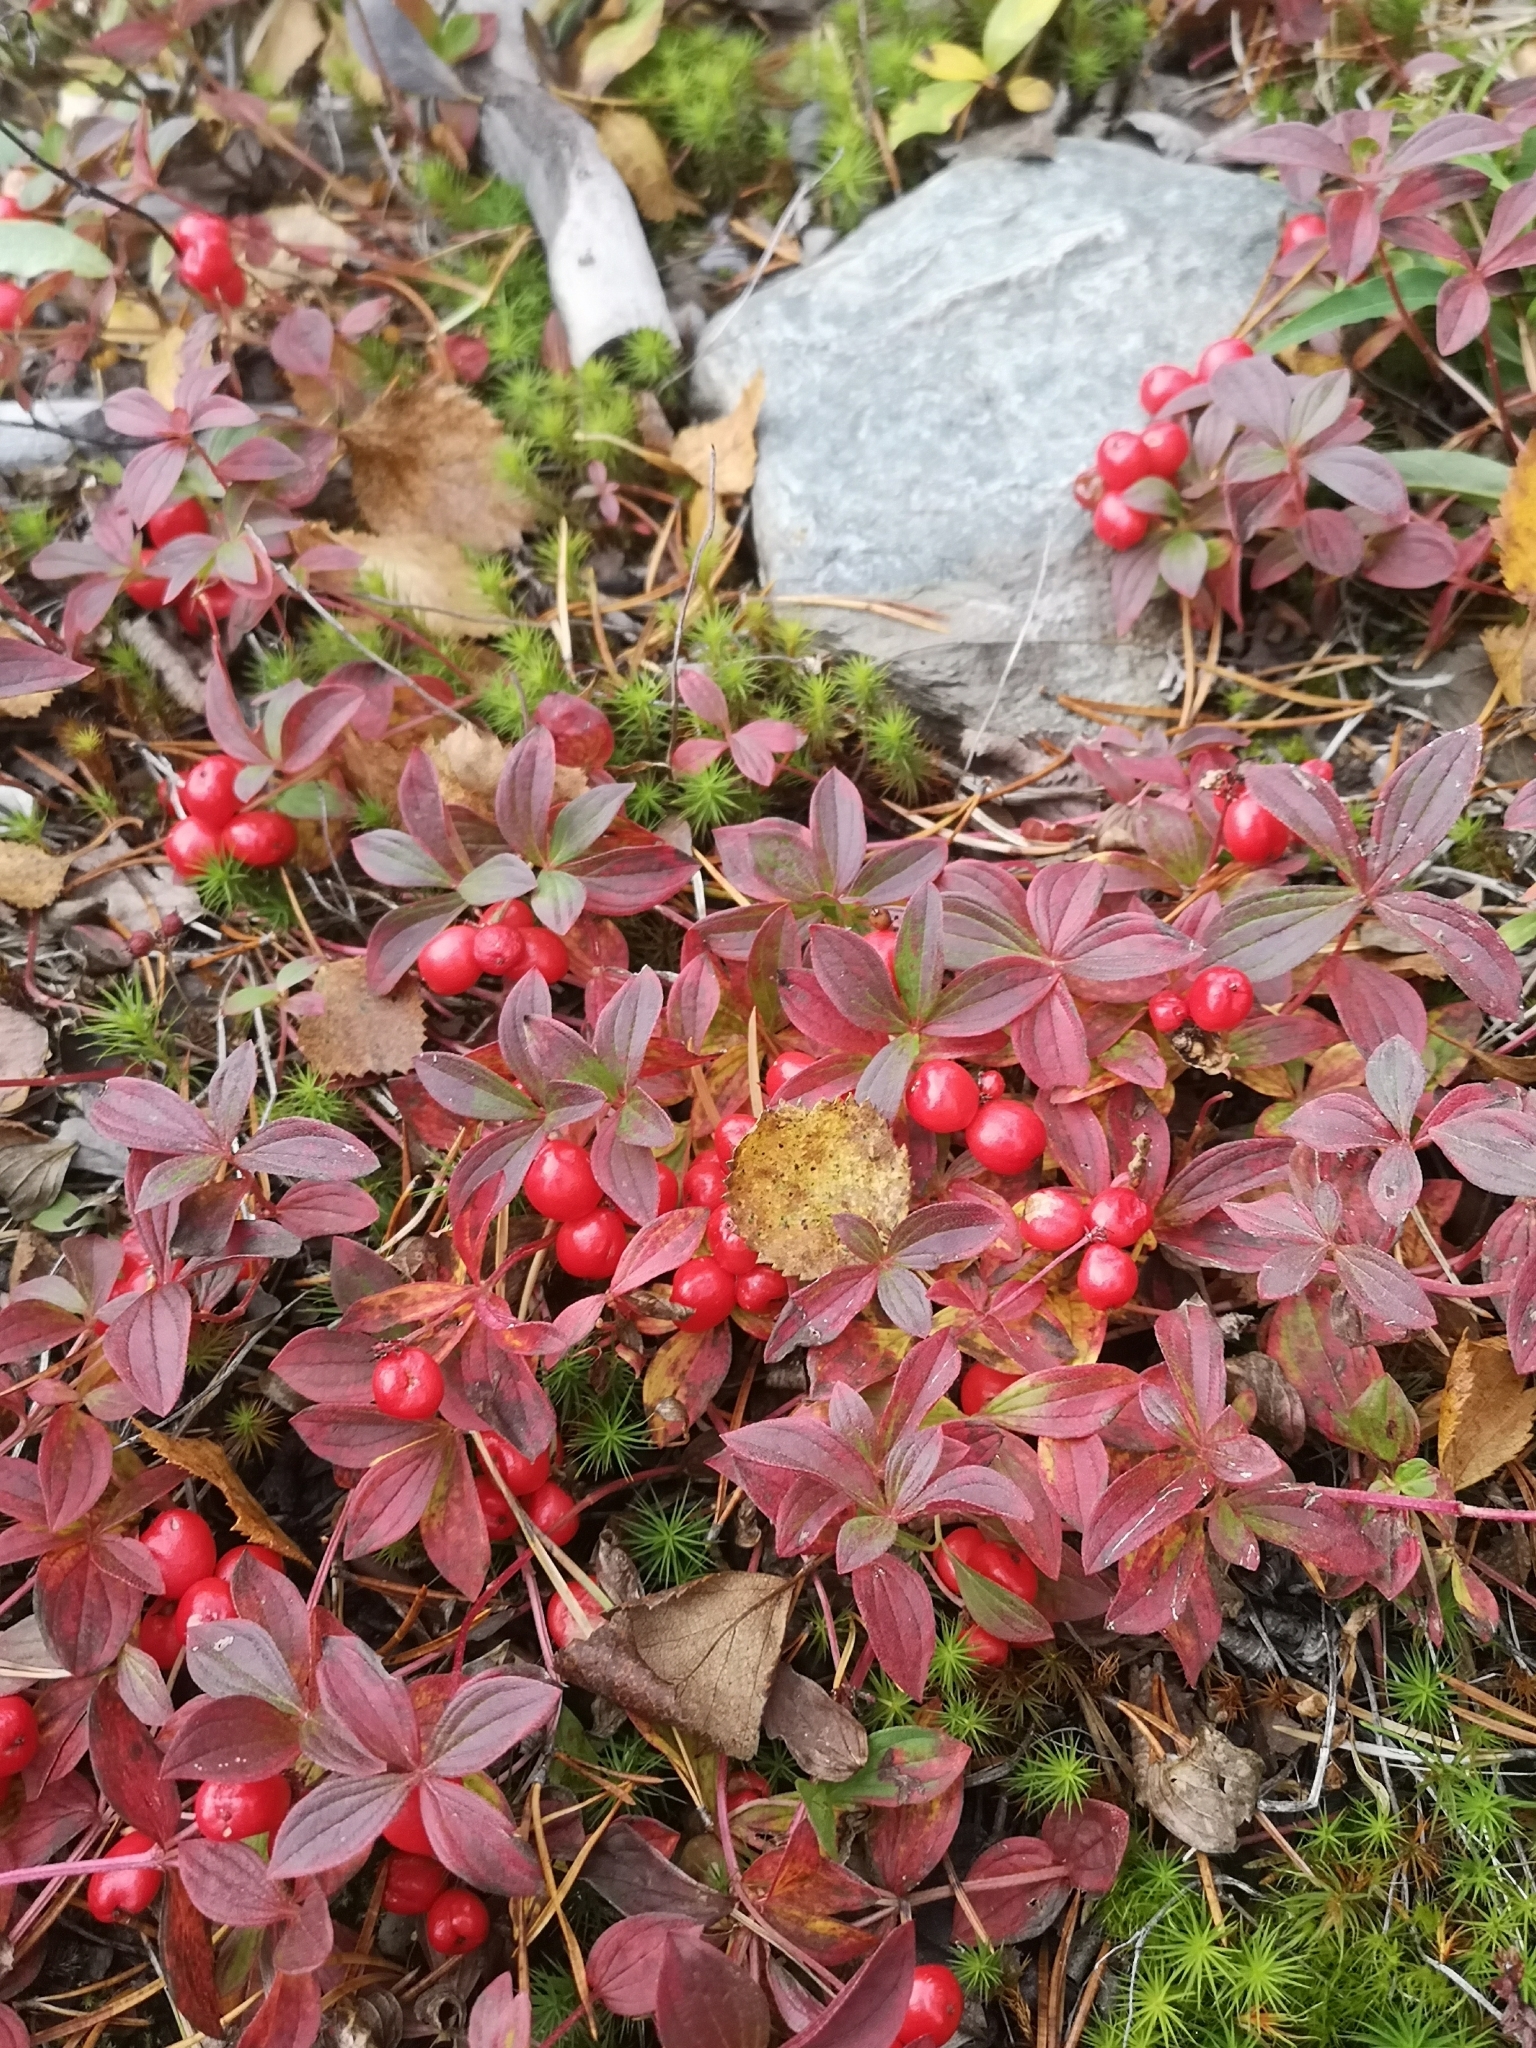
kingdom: Plantae
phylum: Tracheophyta
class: Magnoliopsida
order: Cornales
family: Cornaceae
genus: Cornus
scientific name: Cornus suecica
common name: Dwarf cornel
